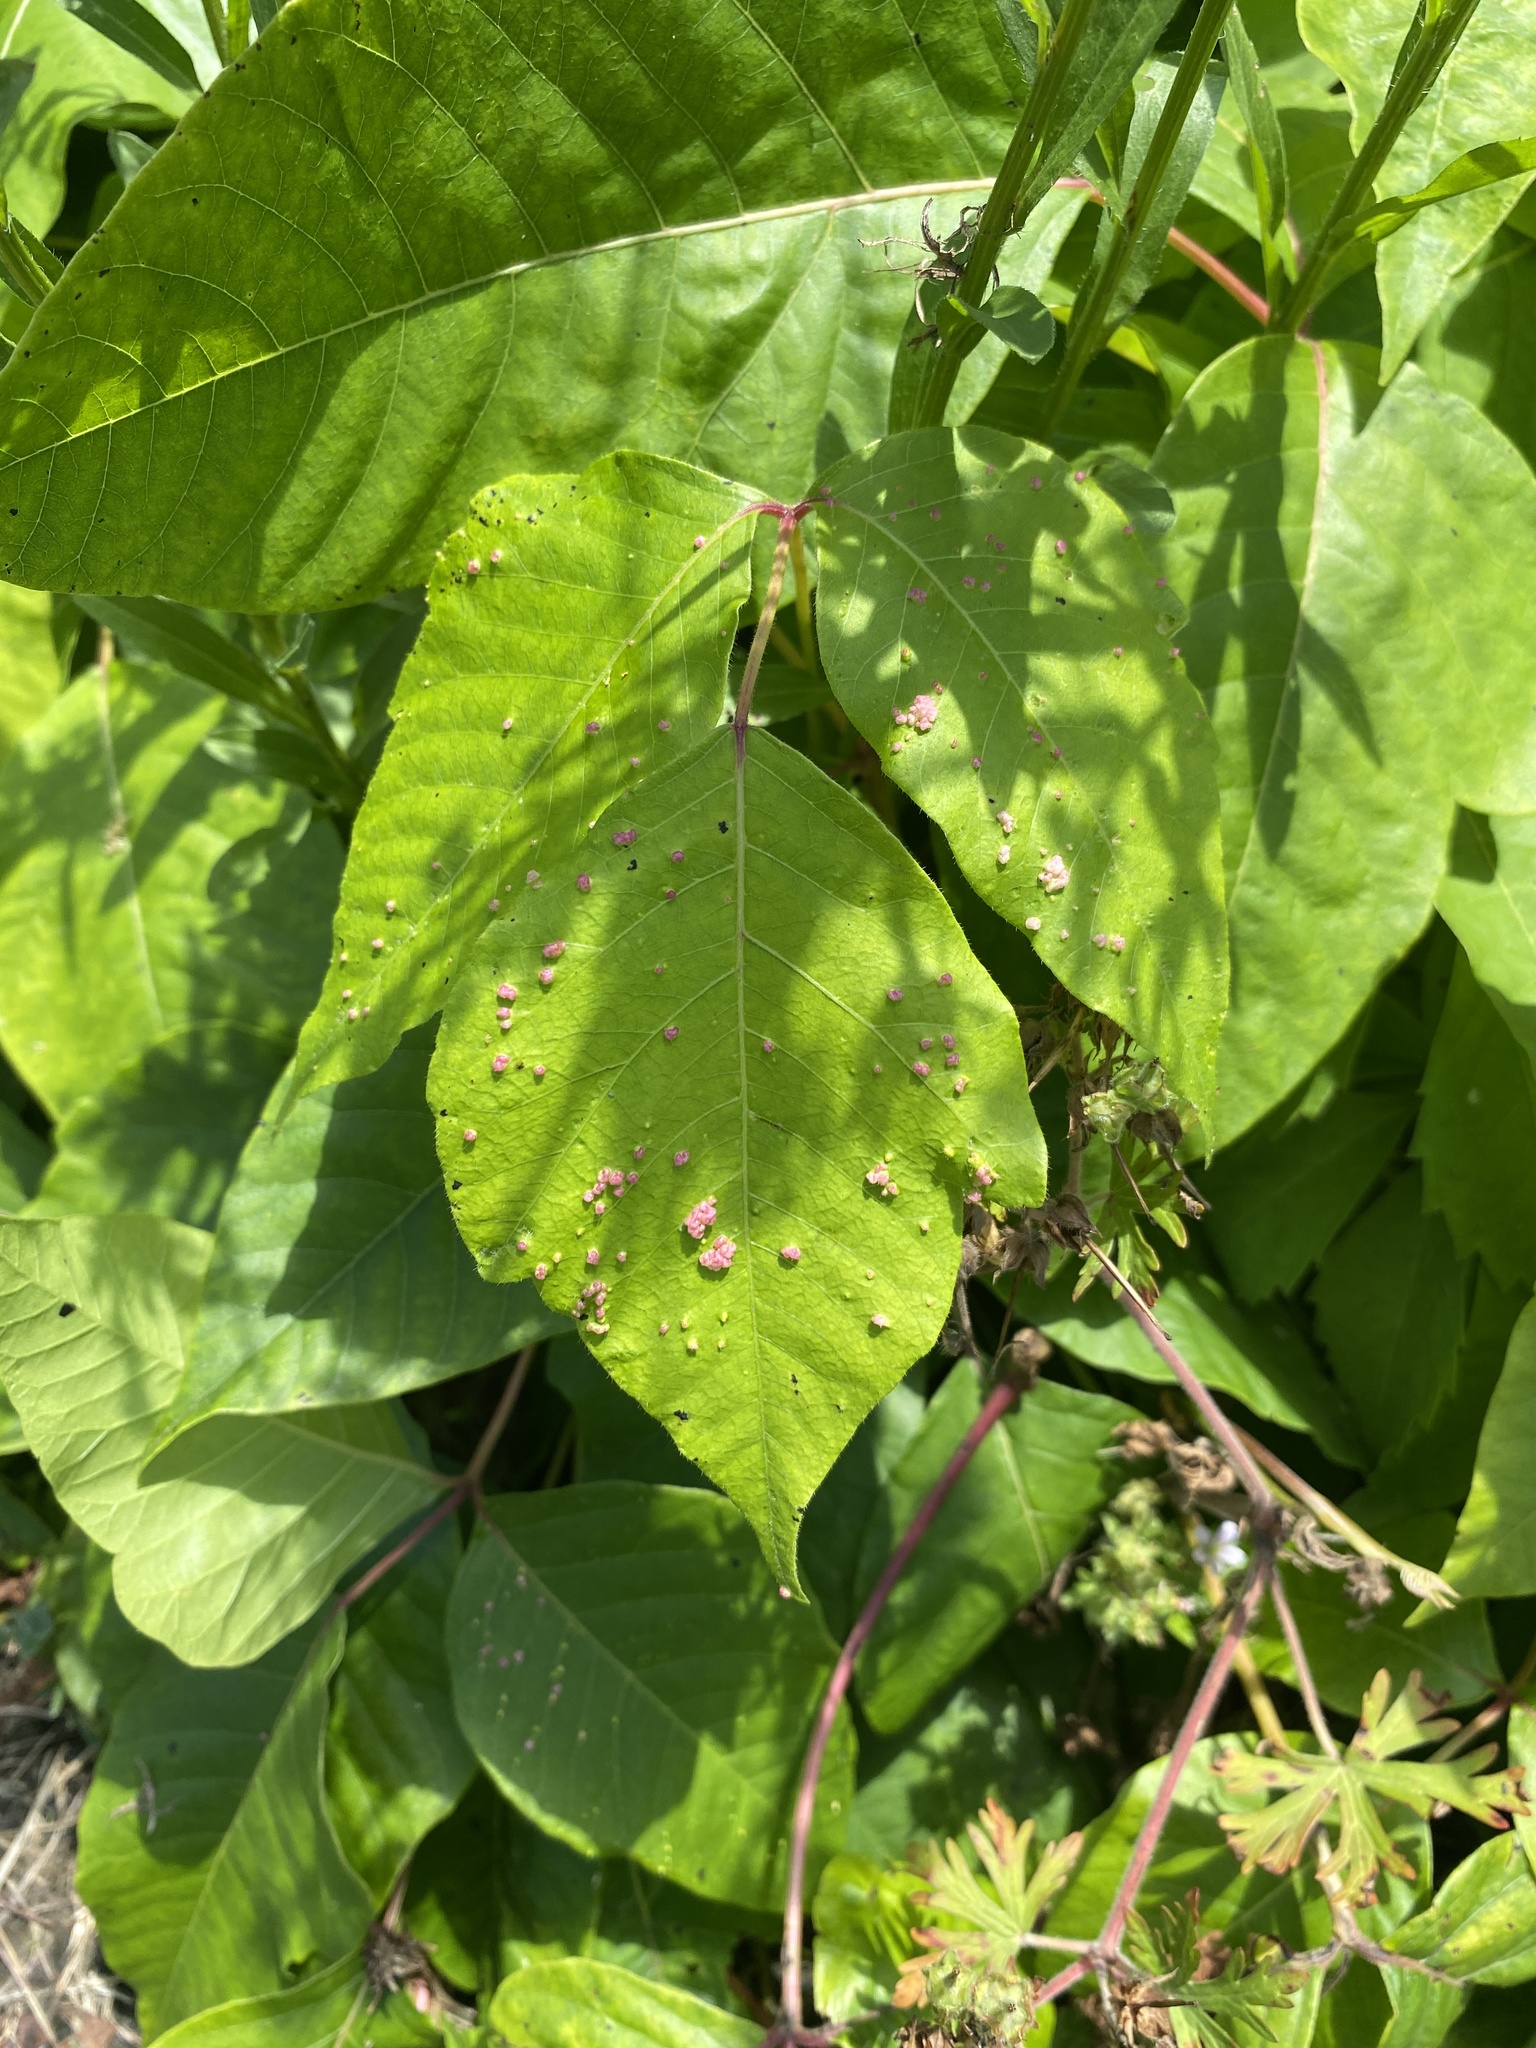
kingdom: Animalia
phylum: Arthropoda
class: Arachnida
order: Trombidiformes
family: Eriophyidae
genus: Aculops
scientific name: Aculops
